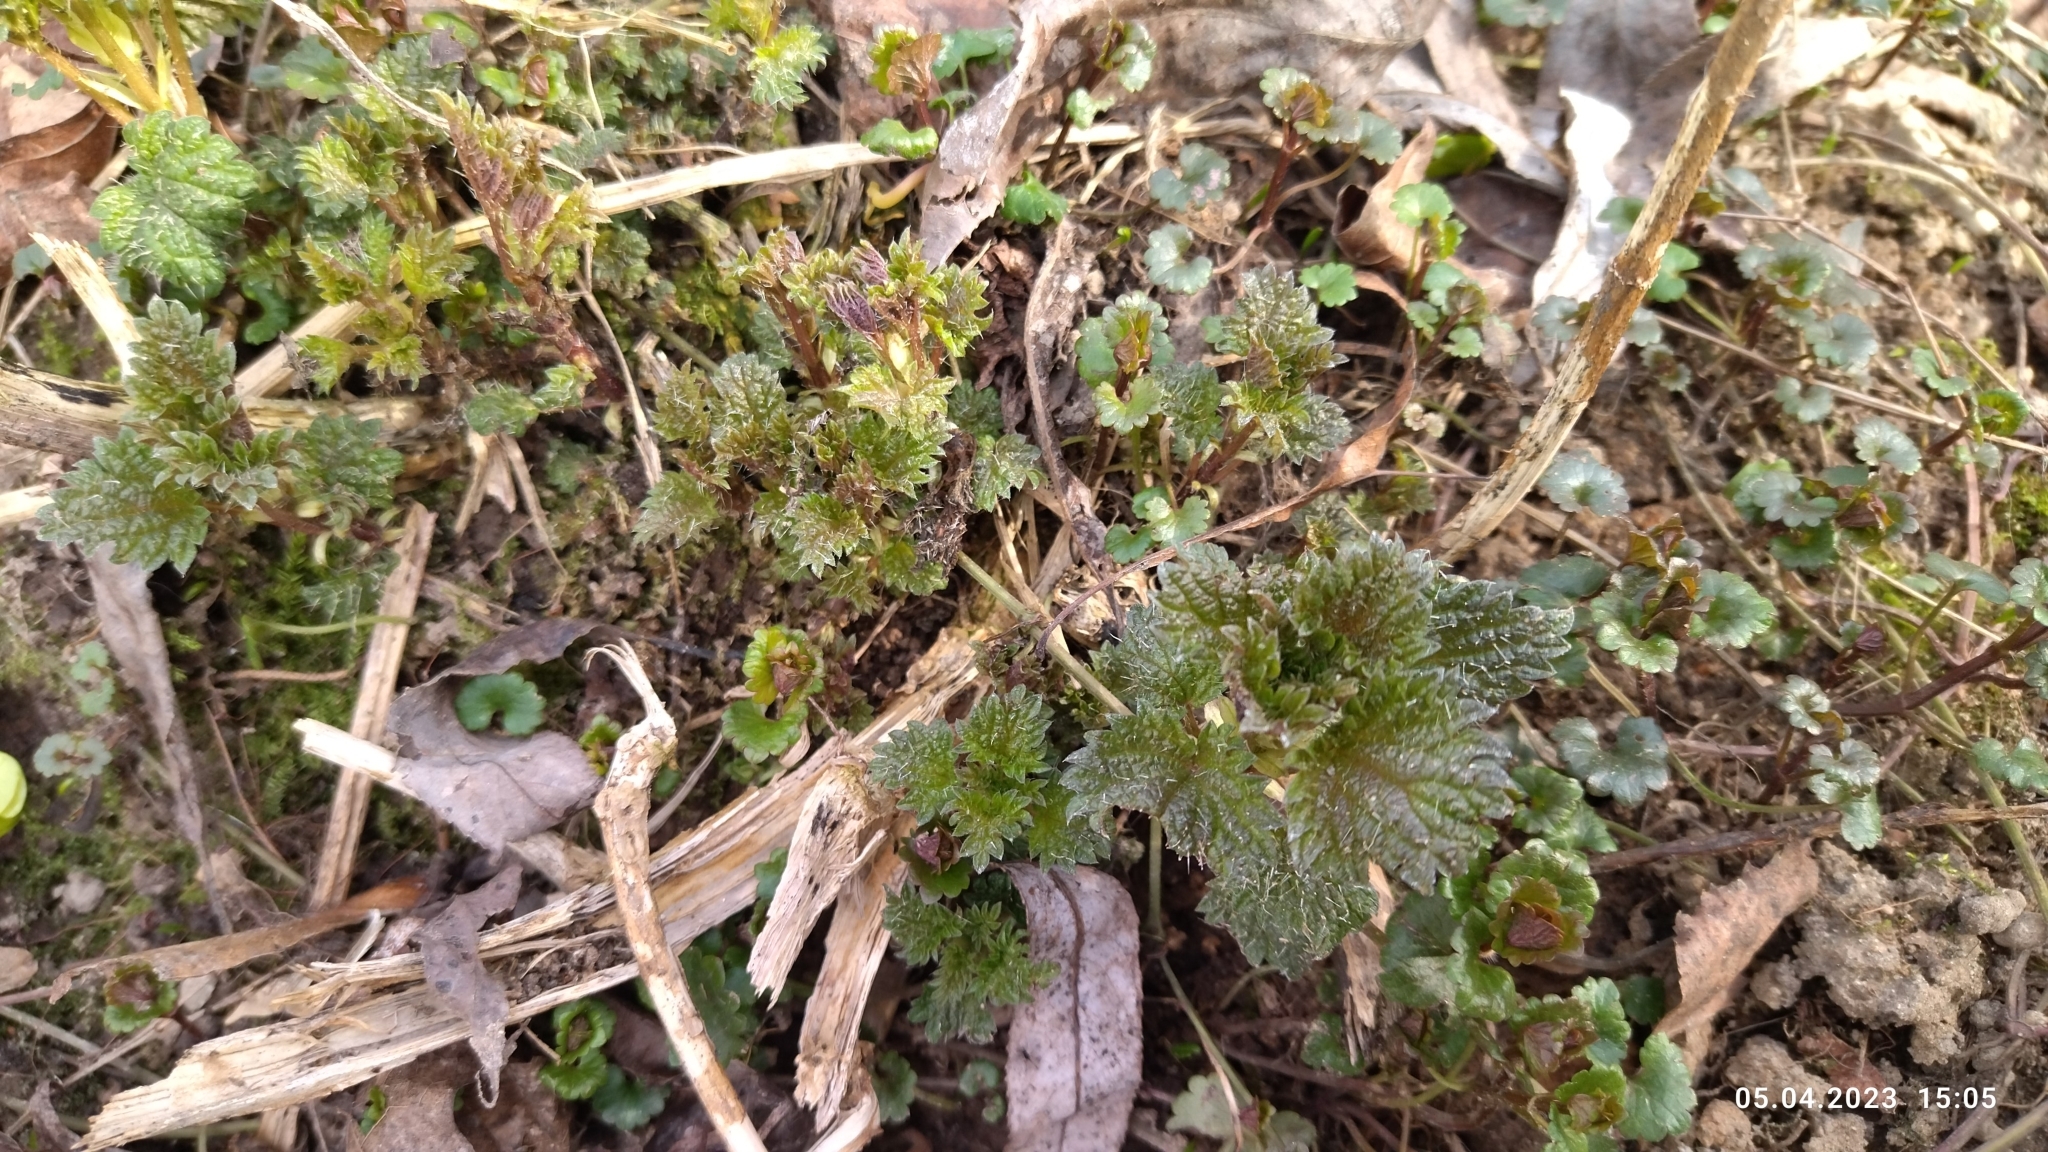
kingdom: Plantae
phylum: Tracheophyta
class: Magnoliopsida
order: Rosales
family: Urticaceae
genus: Urtica
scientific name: Urtica dioica
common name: Common nettle
